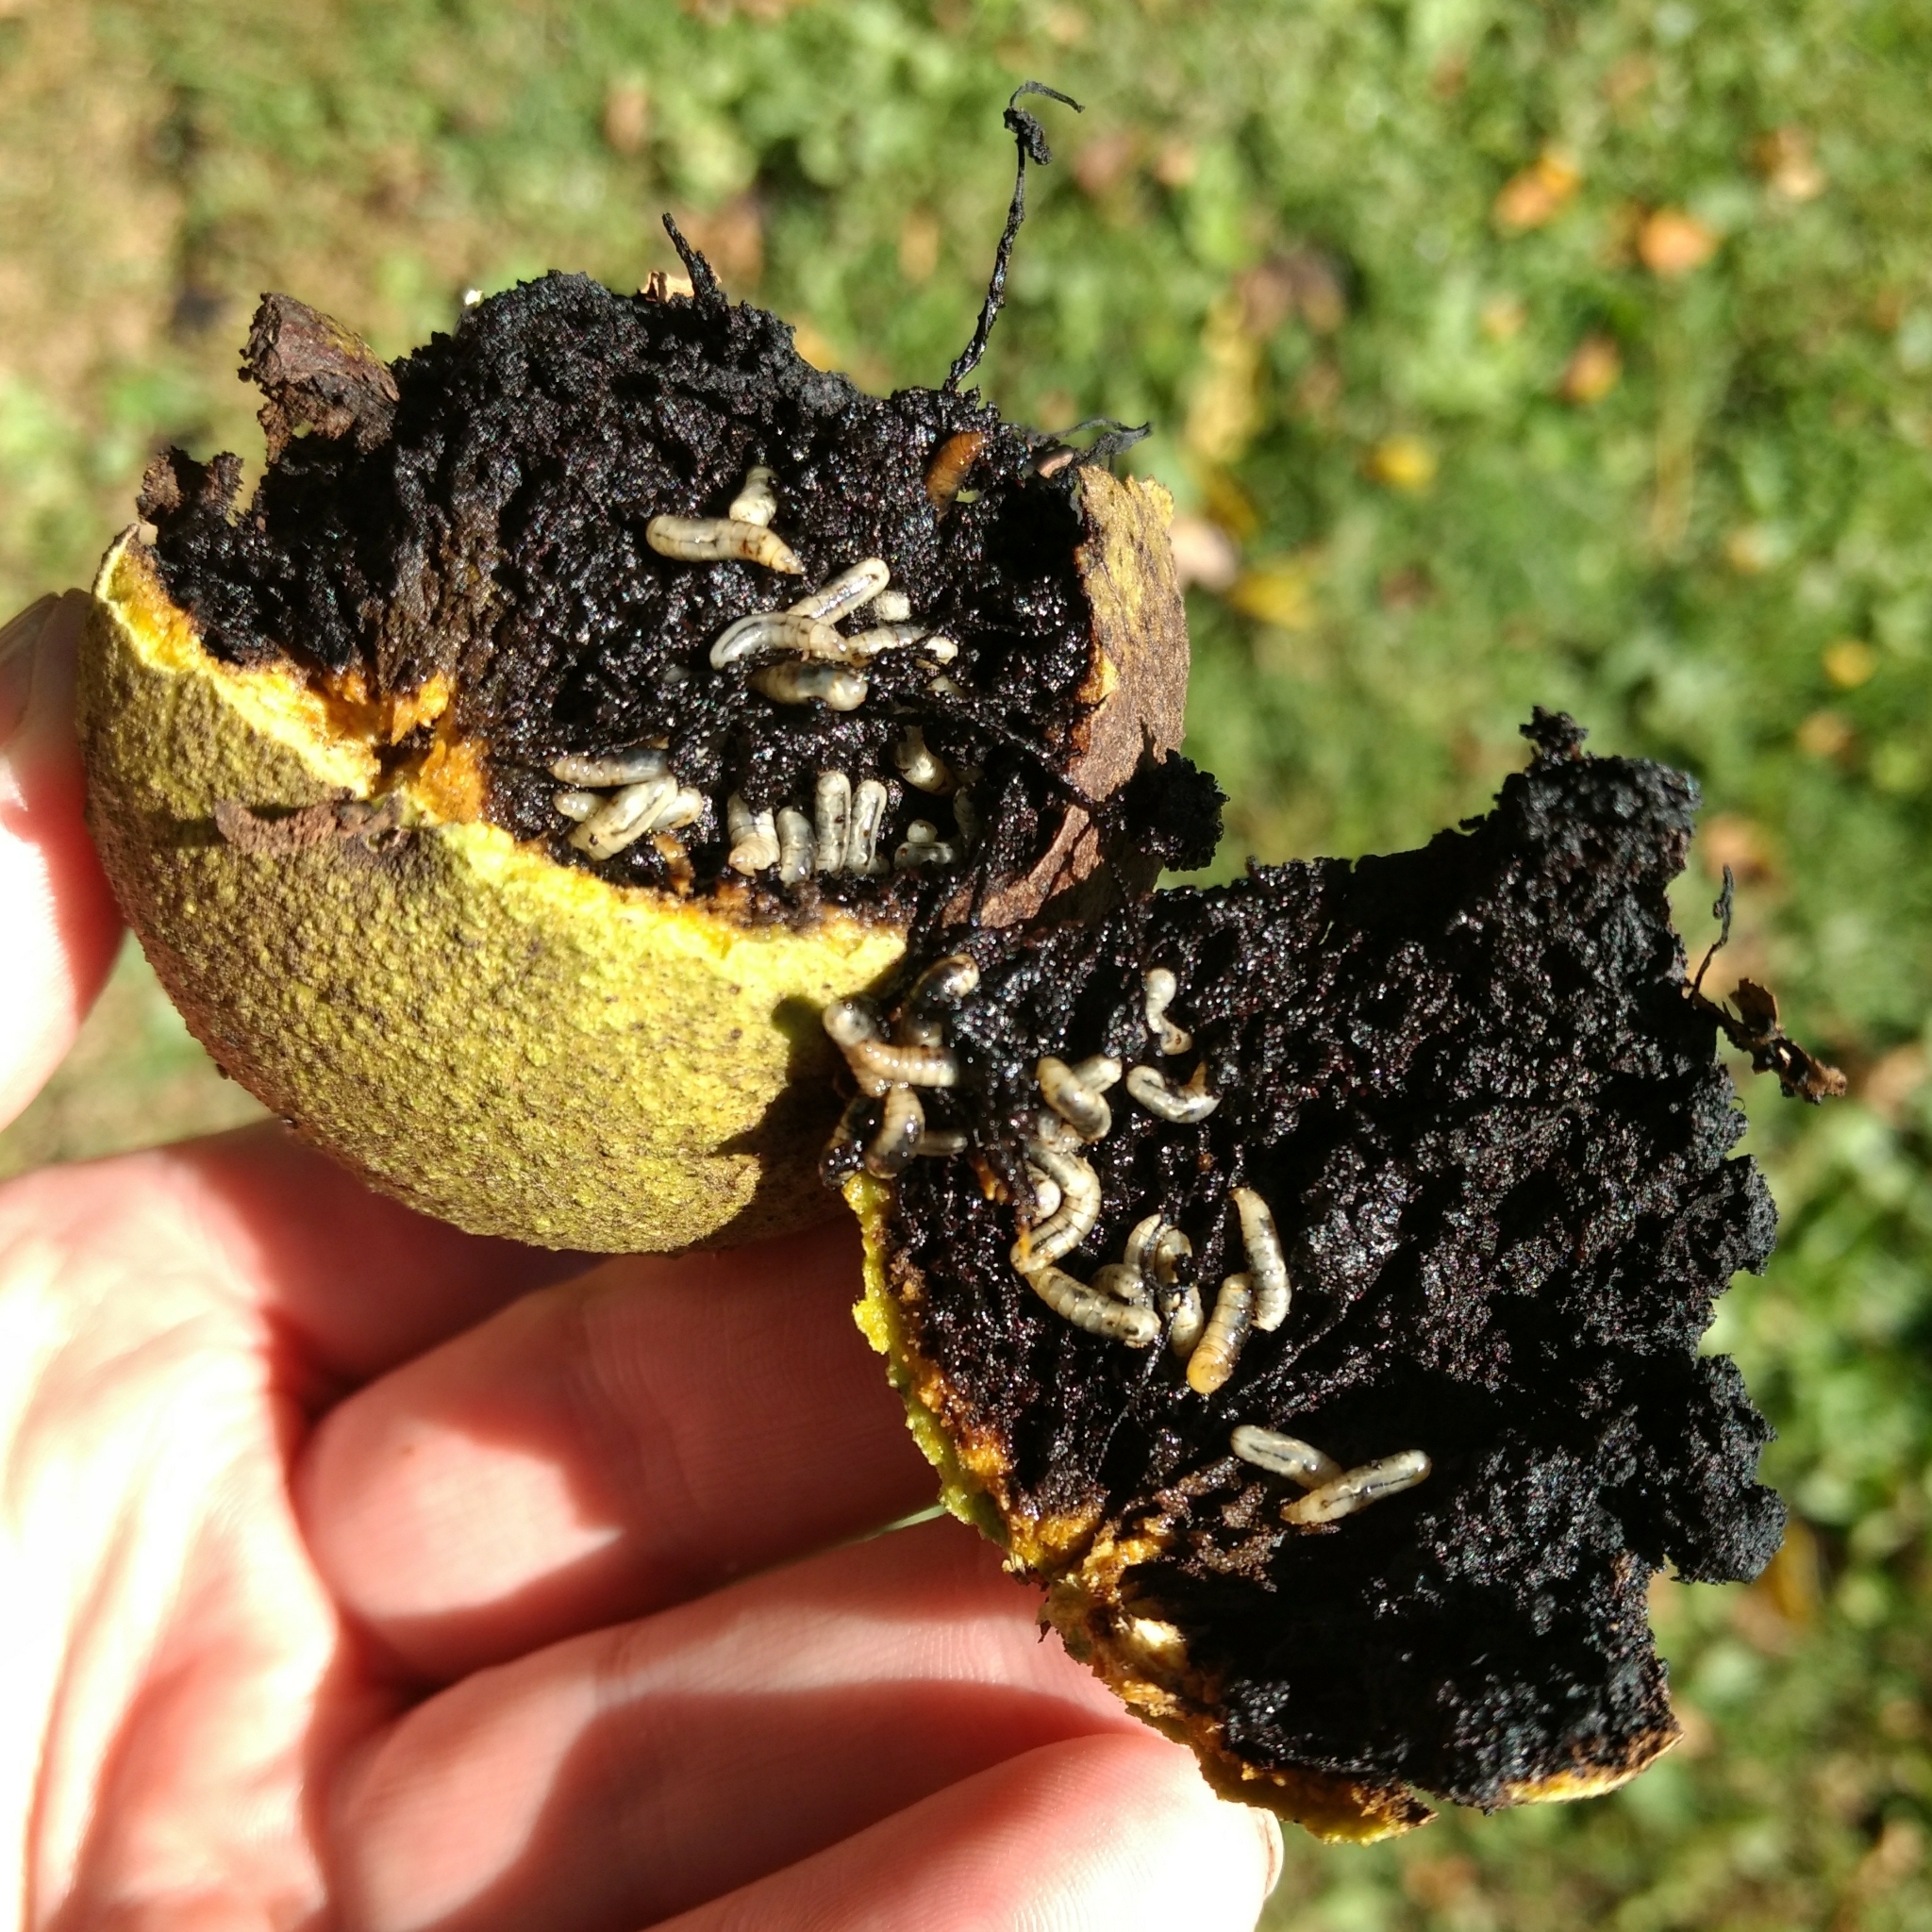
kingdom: Animalia
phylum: Arthropoda
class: Insecta
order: Diptera
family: Tephritidae
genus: Rhagoletis
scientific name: Rhagoletis suavis
